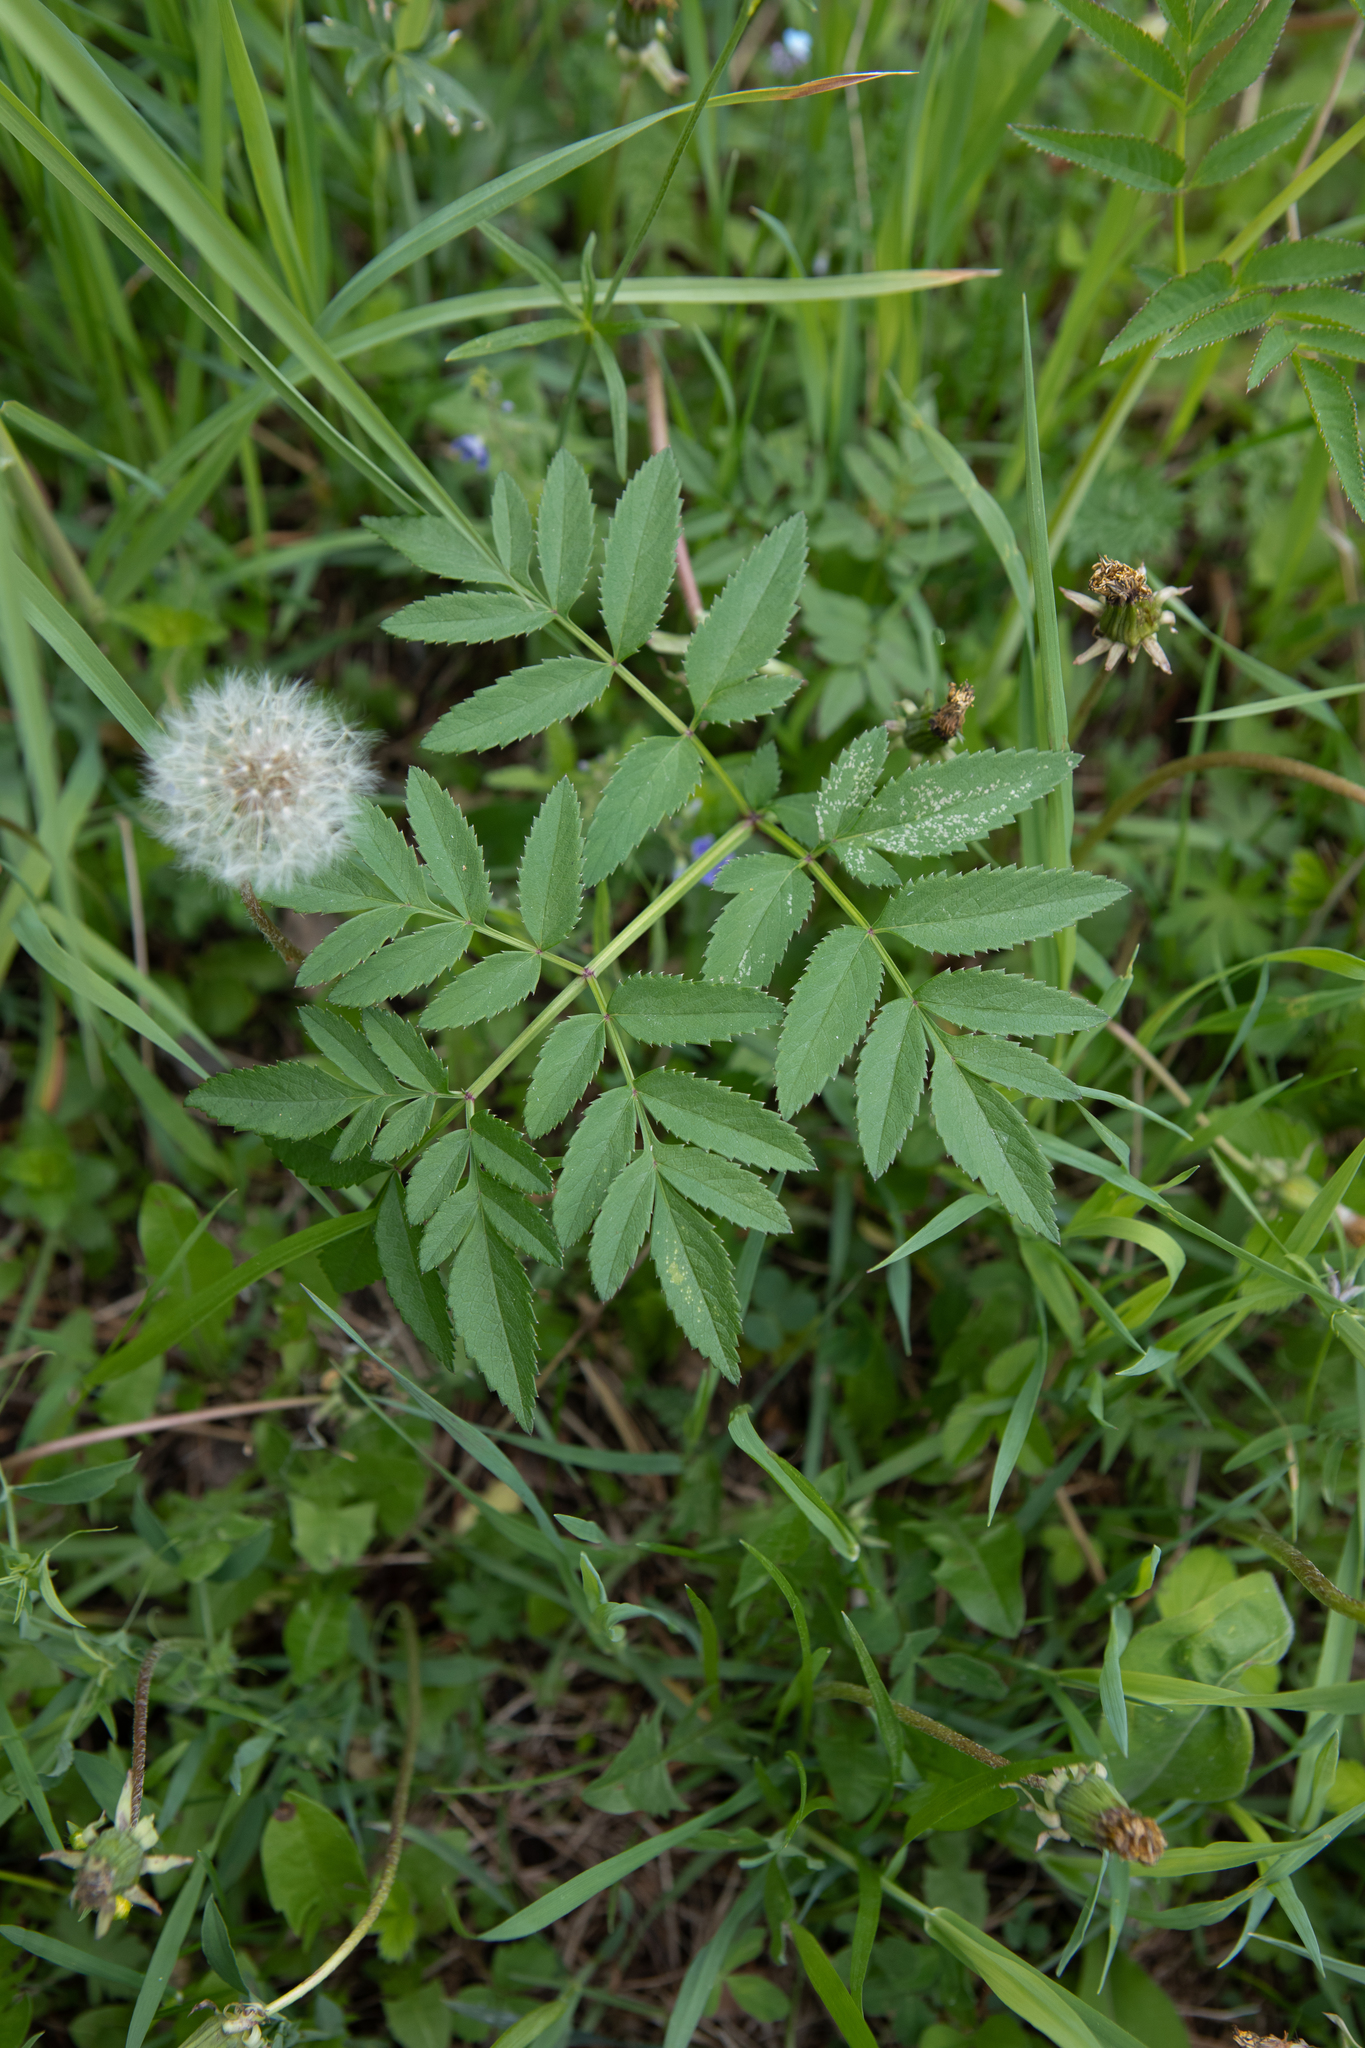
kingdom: Plantae
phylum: Tracheophyta
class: Magnoliopsida
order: Apiales
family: Apiaceae
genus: Angelica
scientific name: Angelica sylvestris
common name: Wild angelica
